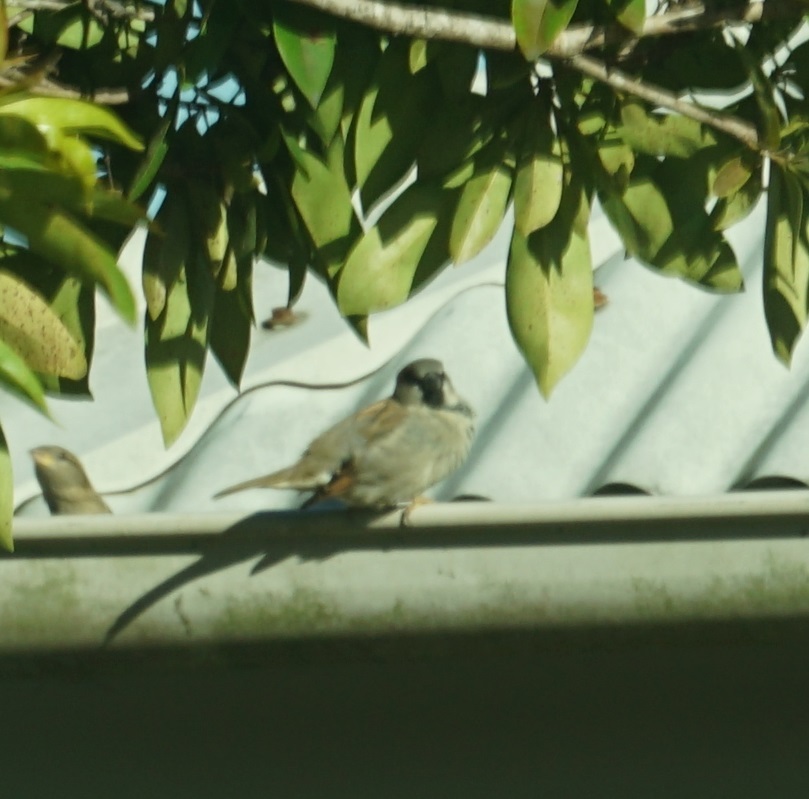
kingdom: Animalia
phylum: Chordata
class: Aves
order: Passeriformes
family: Passeridae
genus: Passer
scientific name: Passer domesticus
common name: House sparrow
